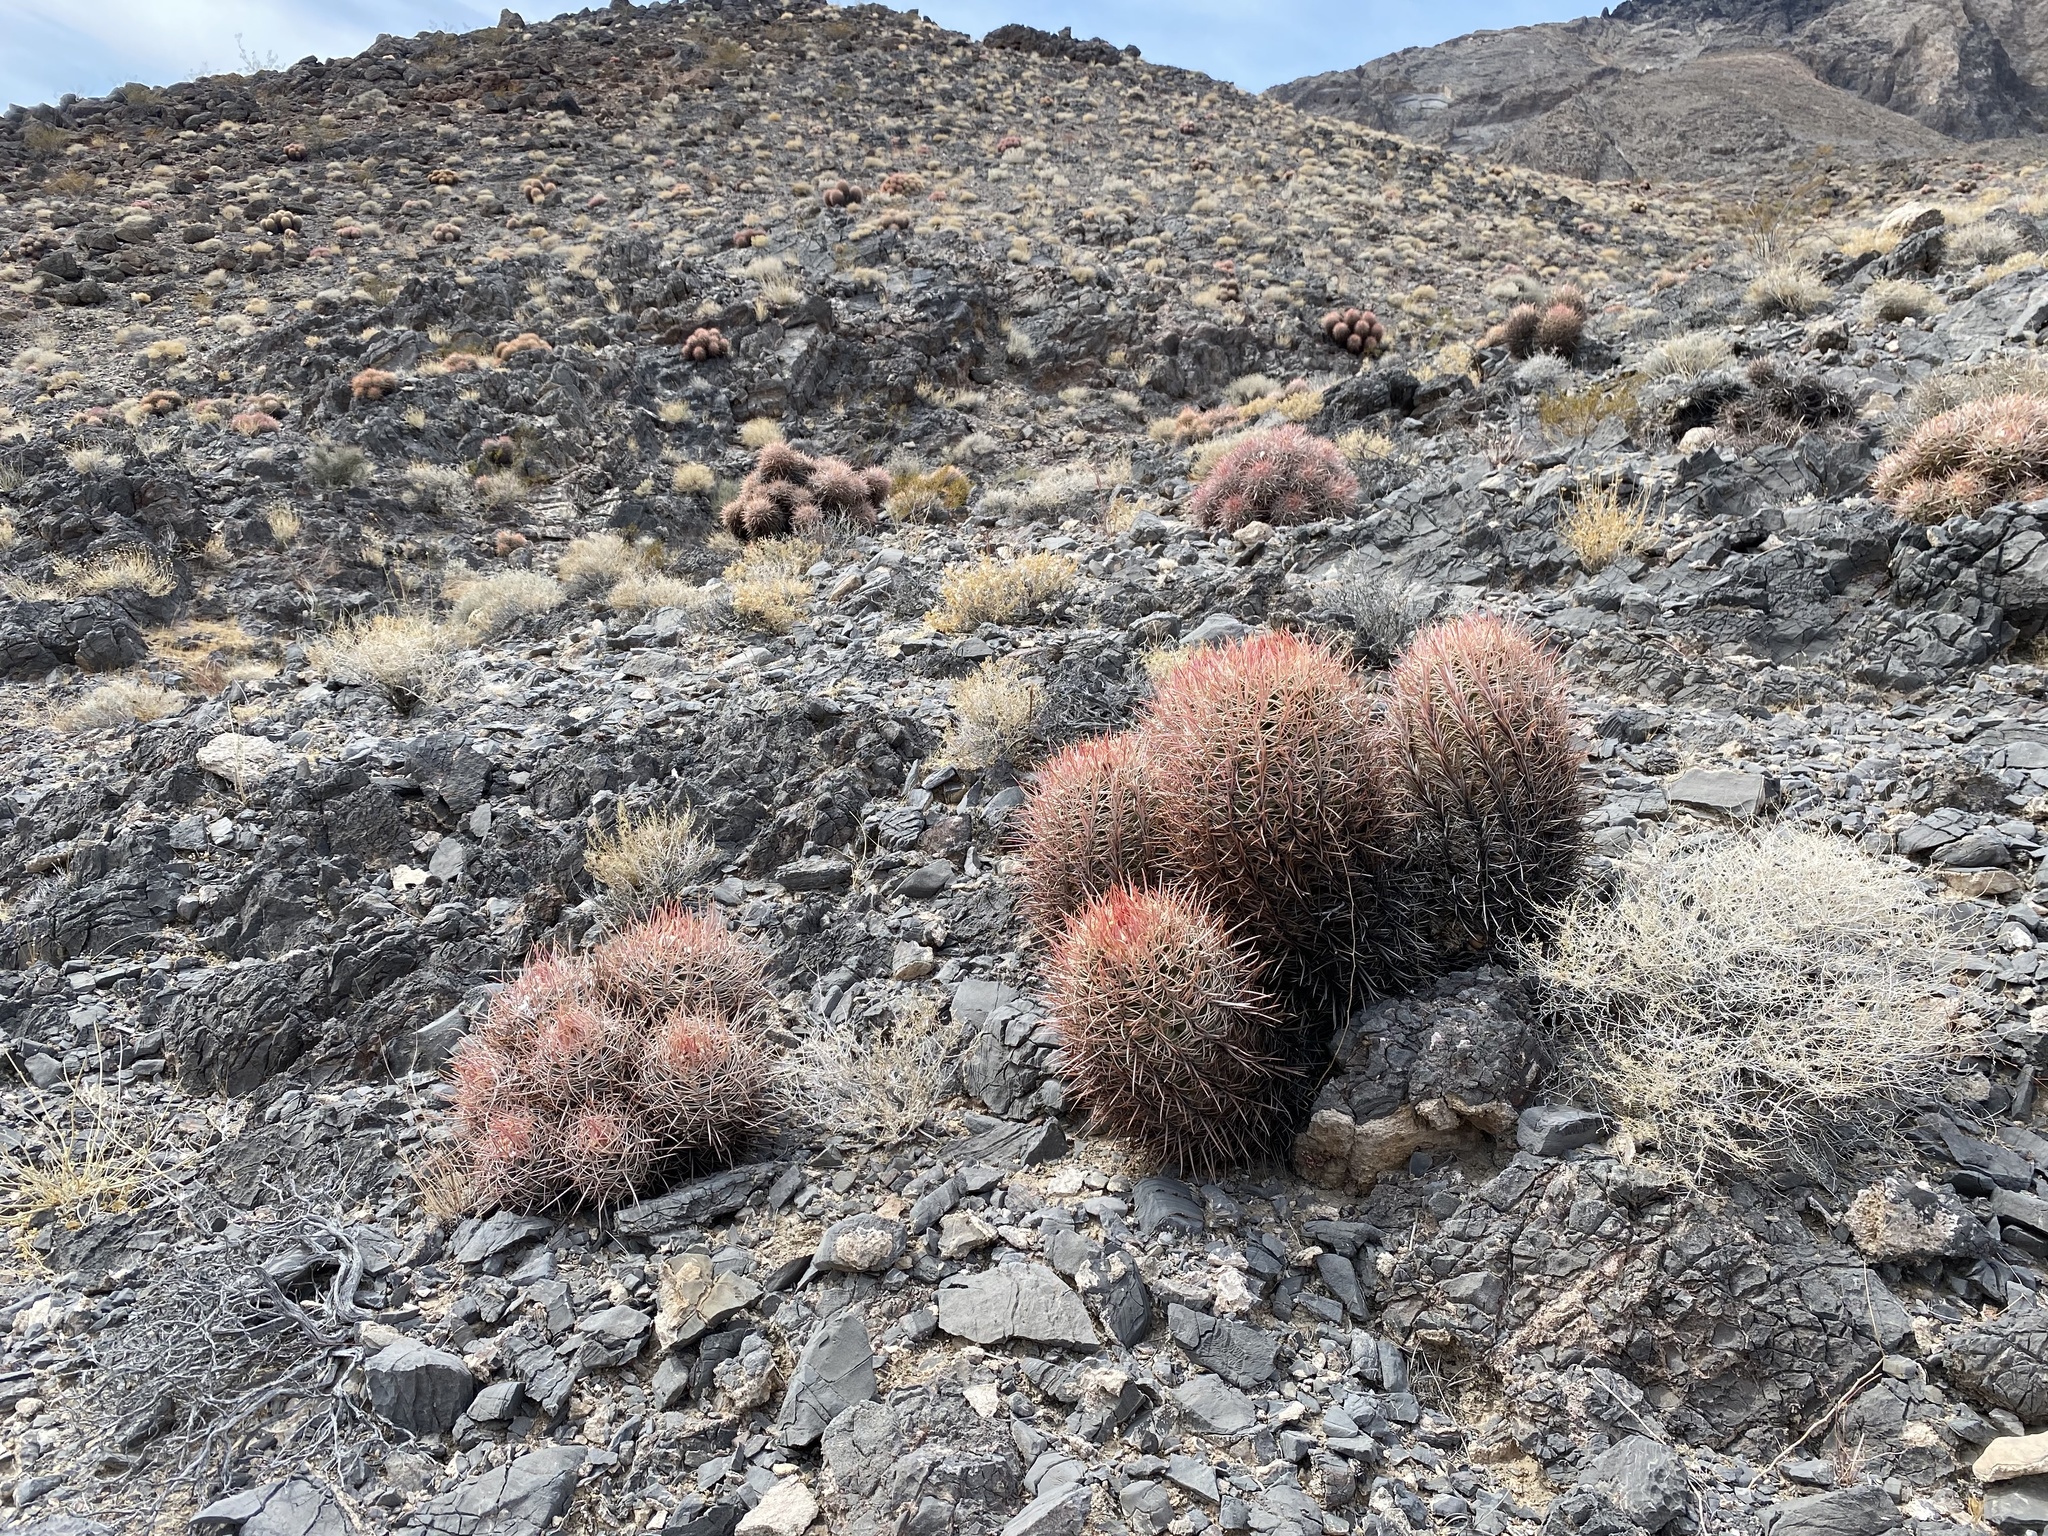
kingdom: Plantae
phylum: Tracheophyta
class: Magnoliopsida
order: Caryophyllales
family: Cactaceae
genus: Echinocactus
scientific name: Echinocactus polycephalus
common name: Cottontop cactus
